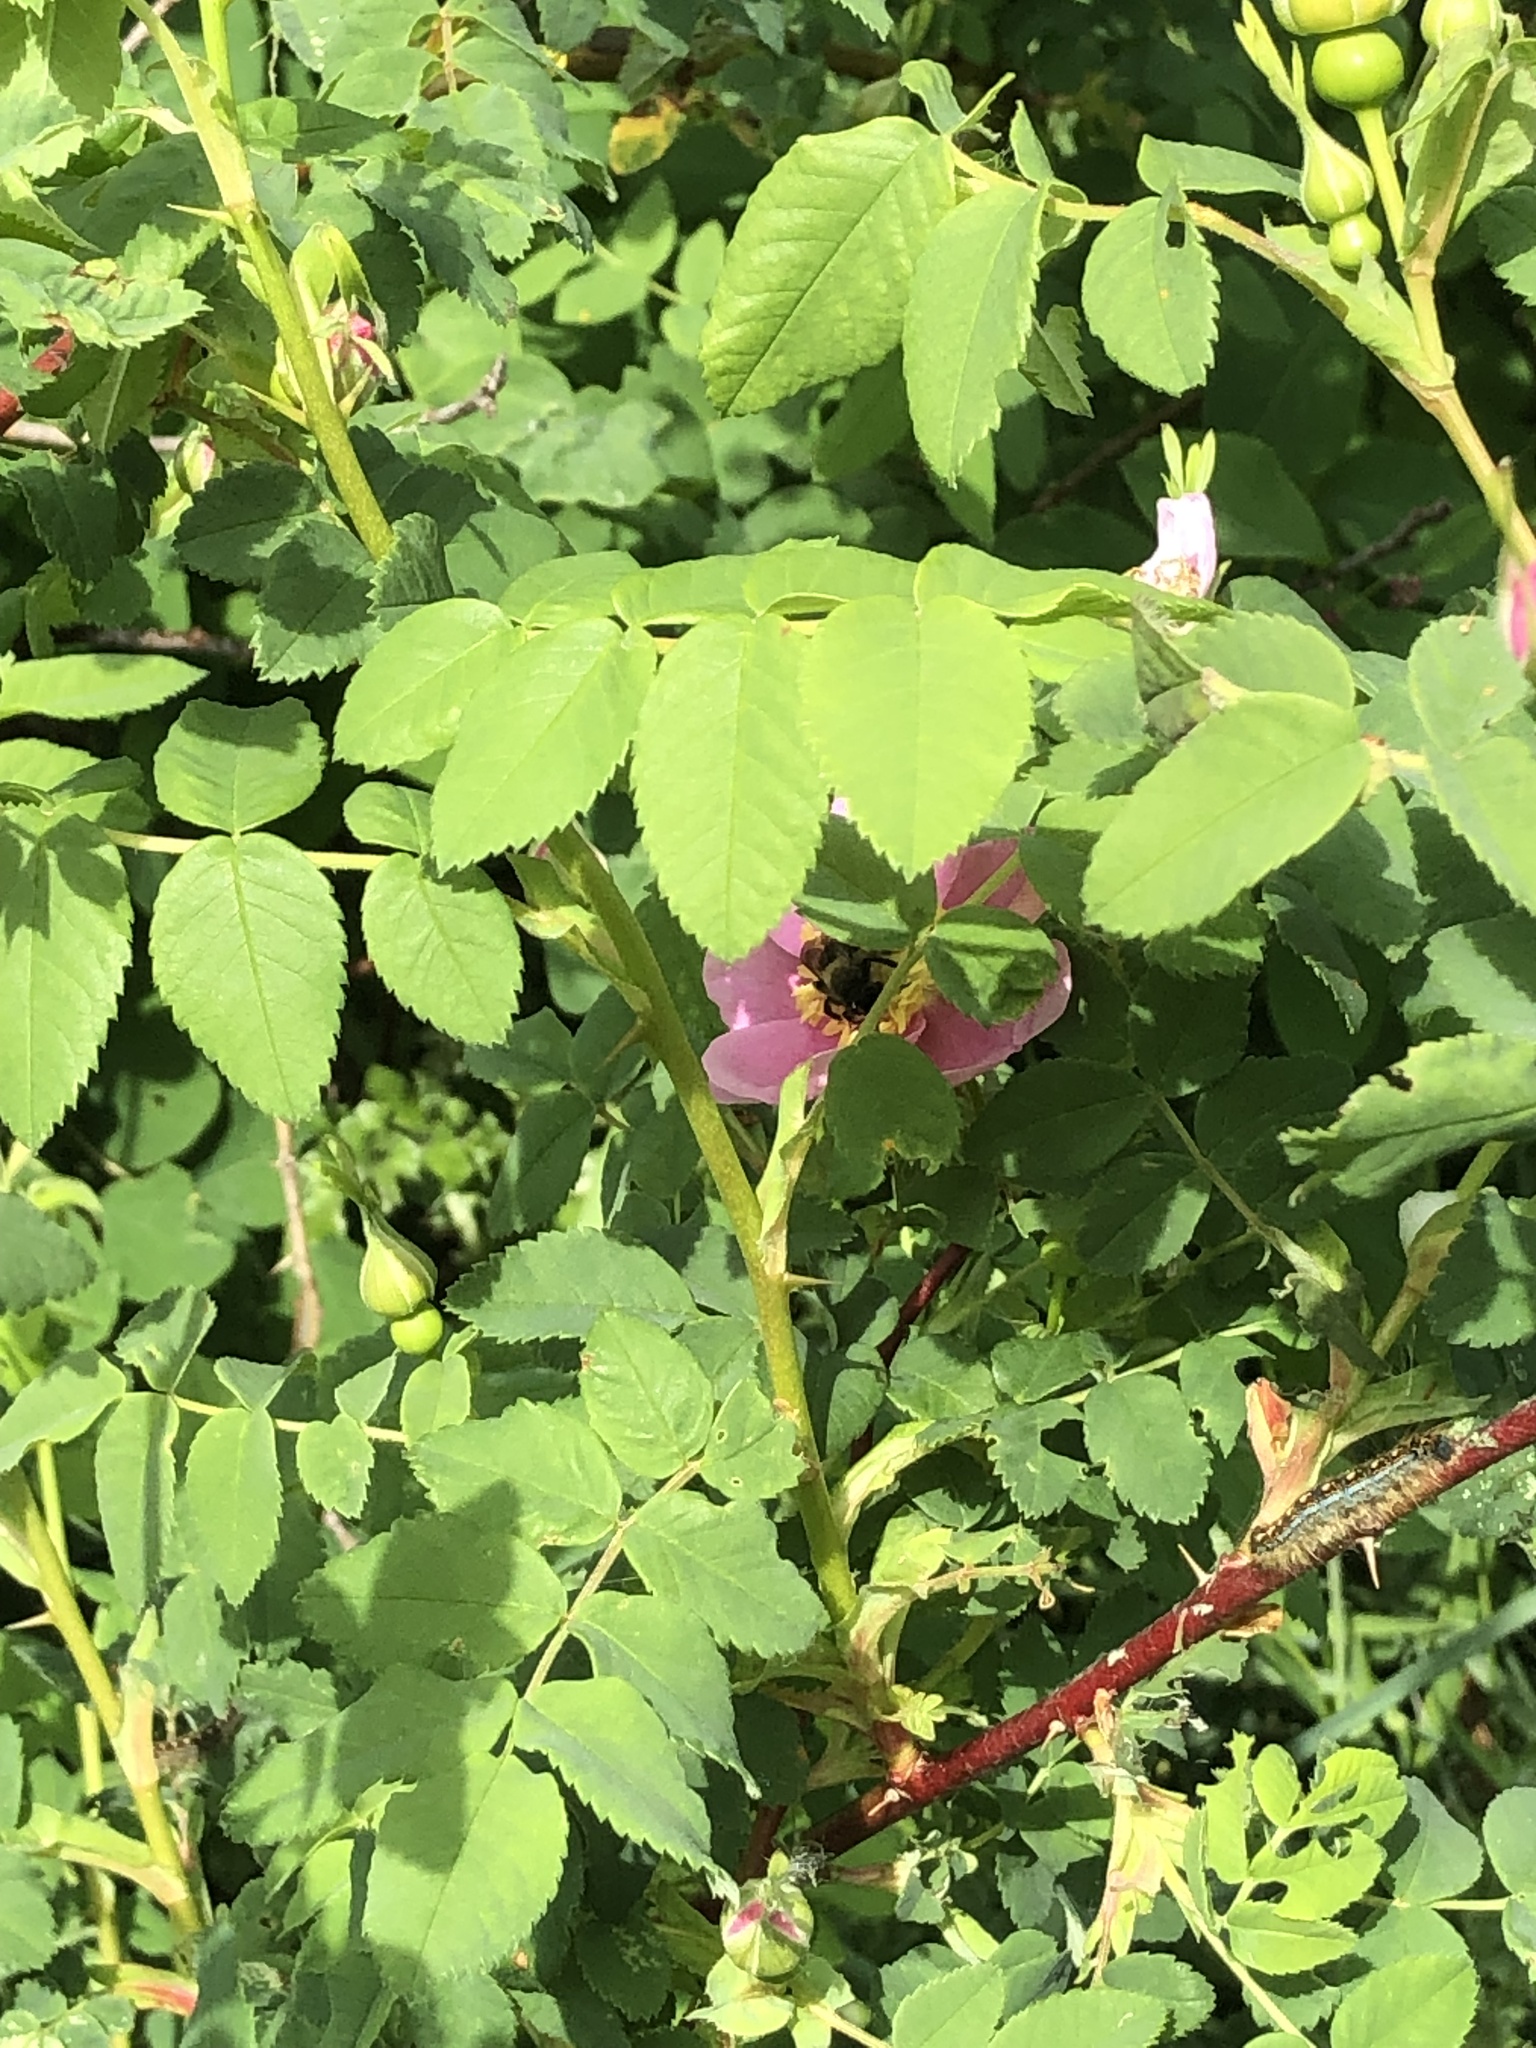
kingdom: Plantae
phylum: Tracheophyta
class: Magnoliopsida
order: Rosales
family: Rosaceae
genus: Rosa
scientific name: Rosa nutkana
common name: Nootka rose
